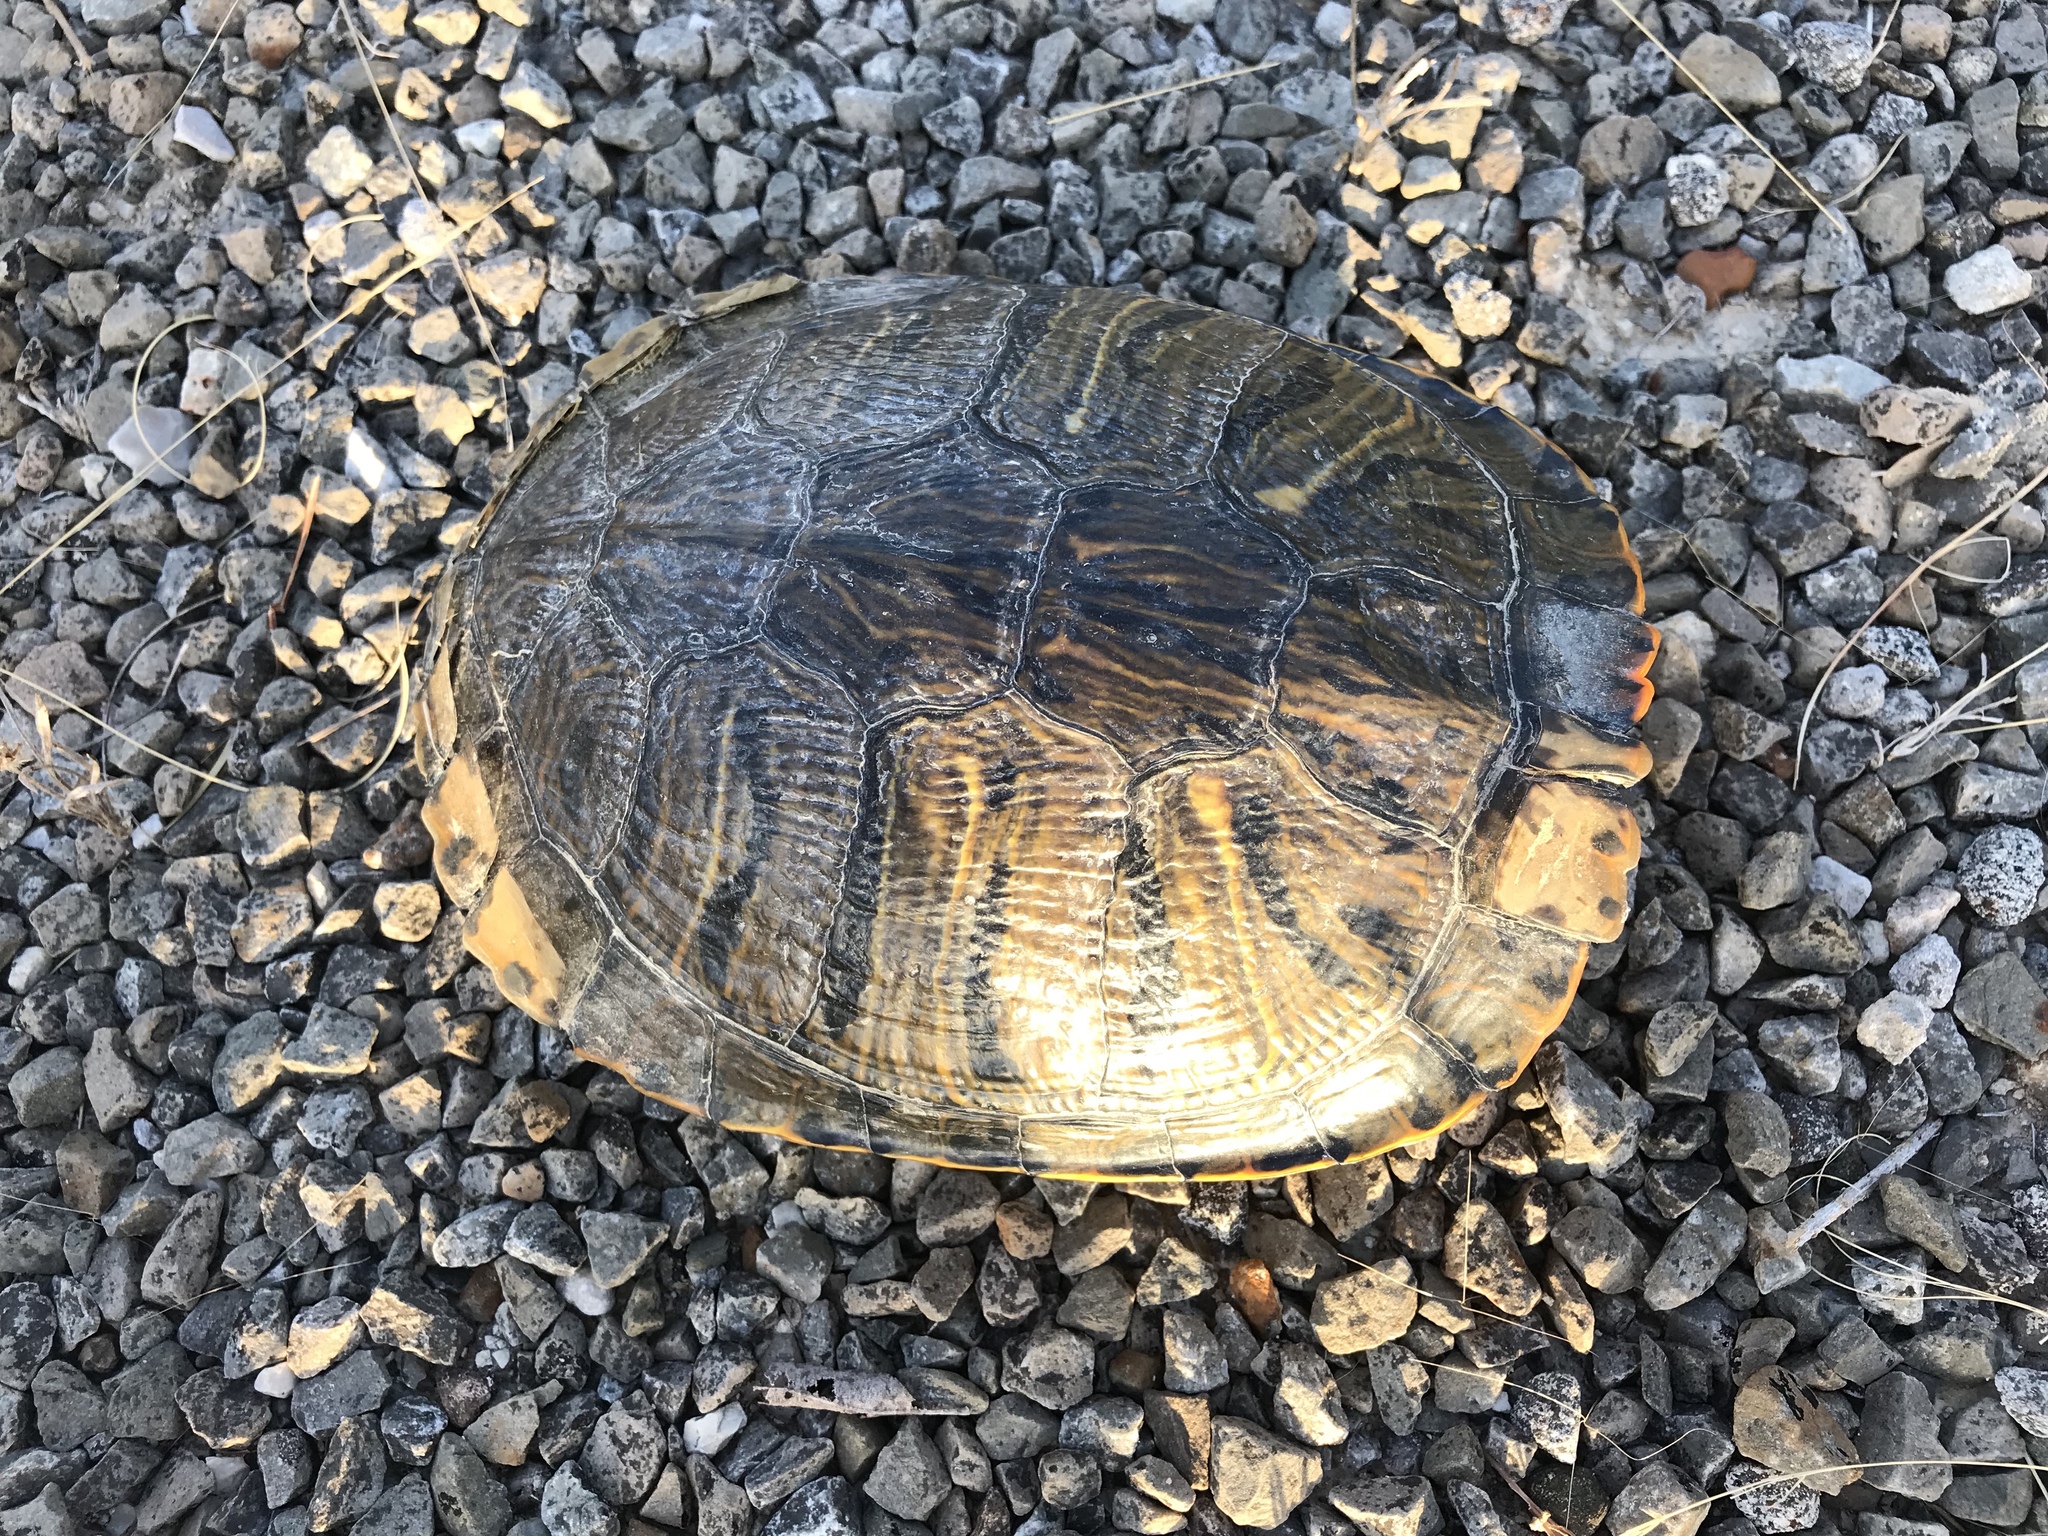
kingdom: Animalia
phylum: Chordata
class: Testudines
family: Emydidae
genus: Trachemys
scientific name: Trachemys scripta
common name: Slider
